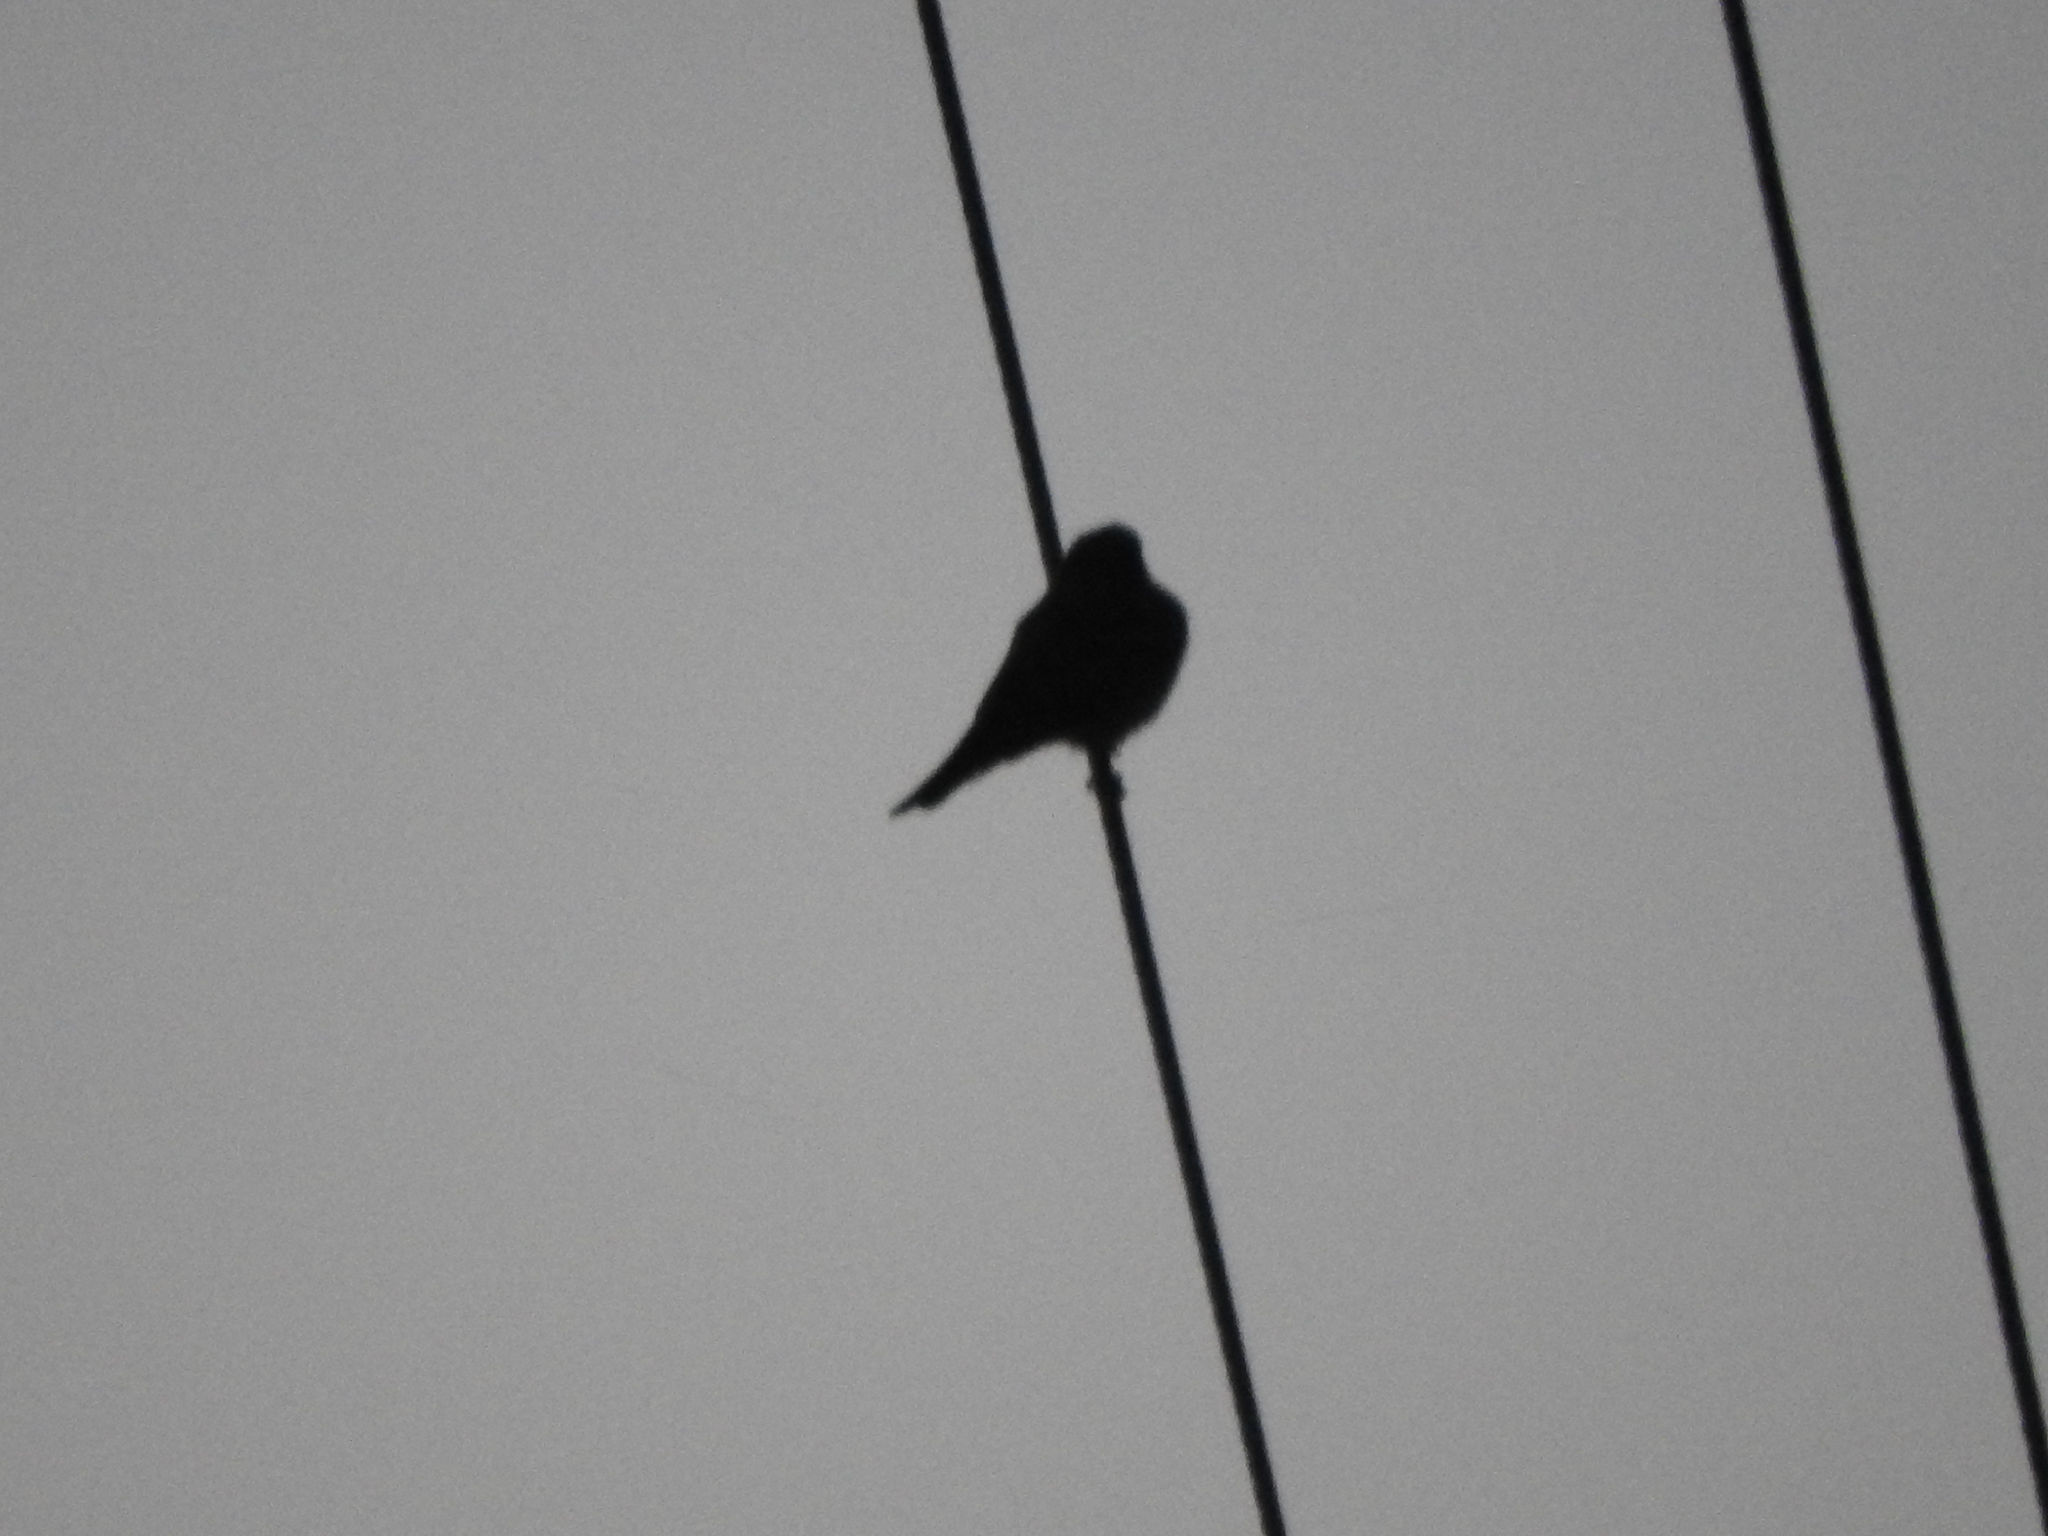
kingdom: Animalia
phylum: Chordata
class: Aves
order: Passeriformes
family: Tyrannidae
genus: Tyrannus
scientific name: Tyrannus vociferans
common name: Cassin's kingbird
